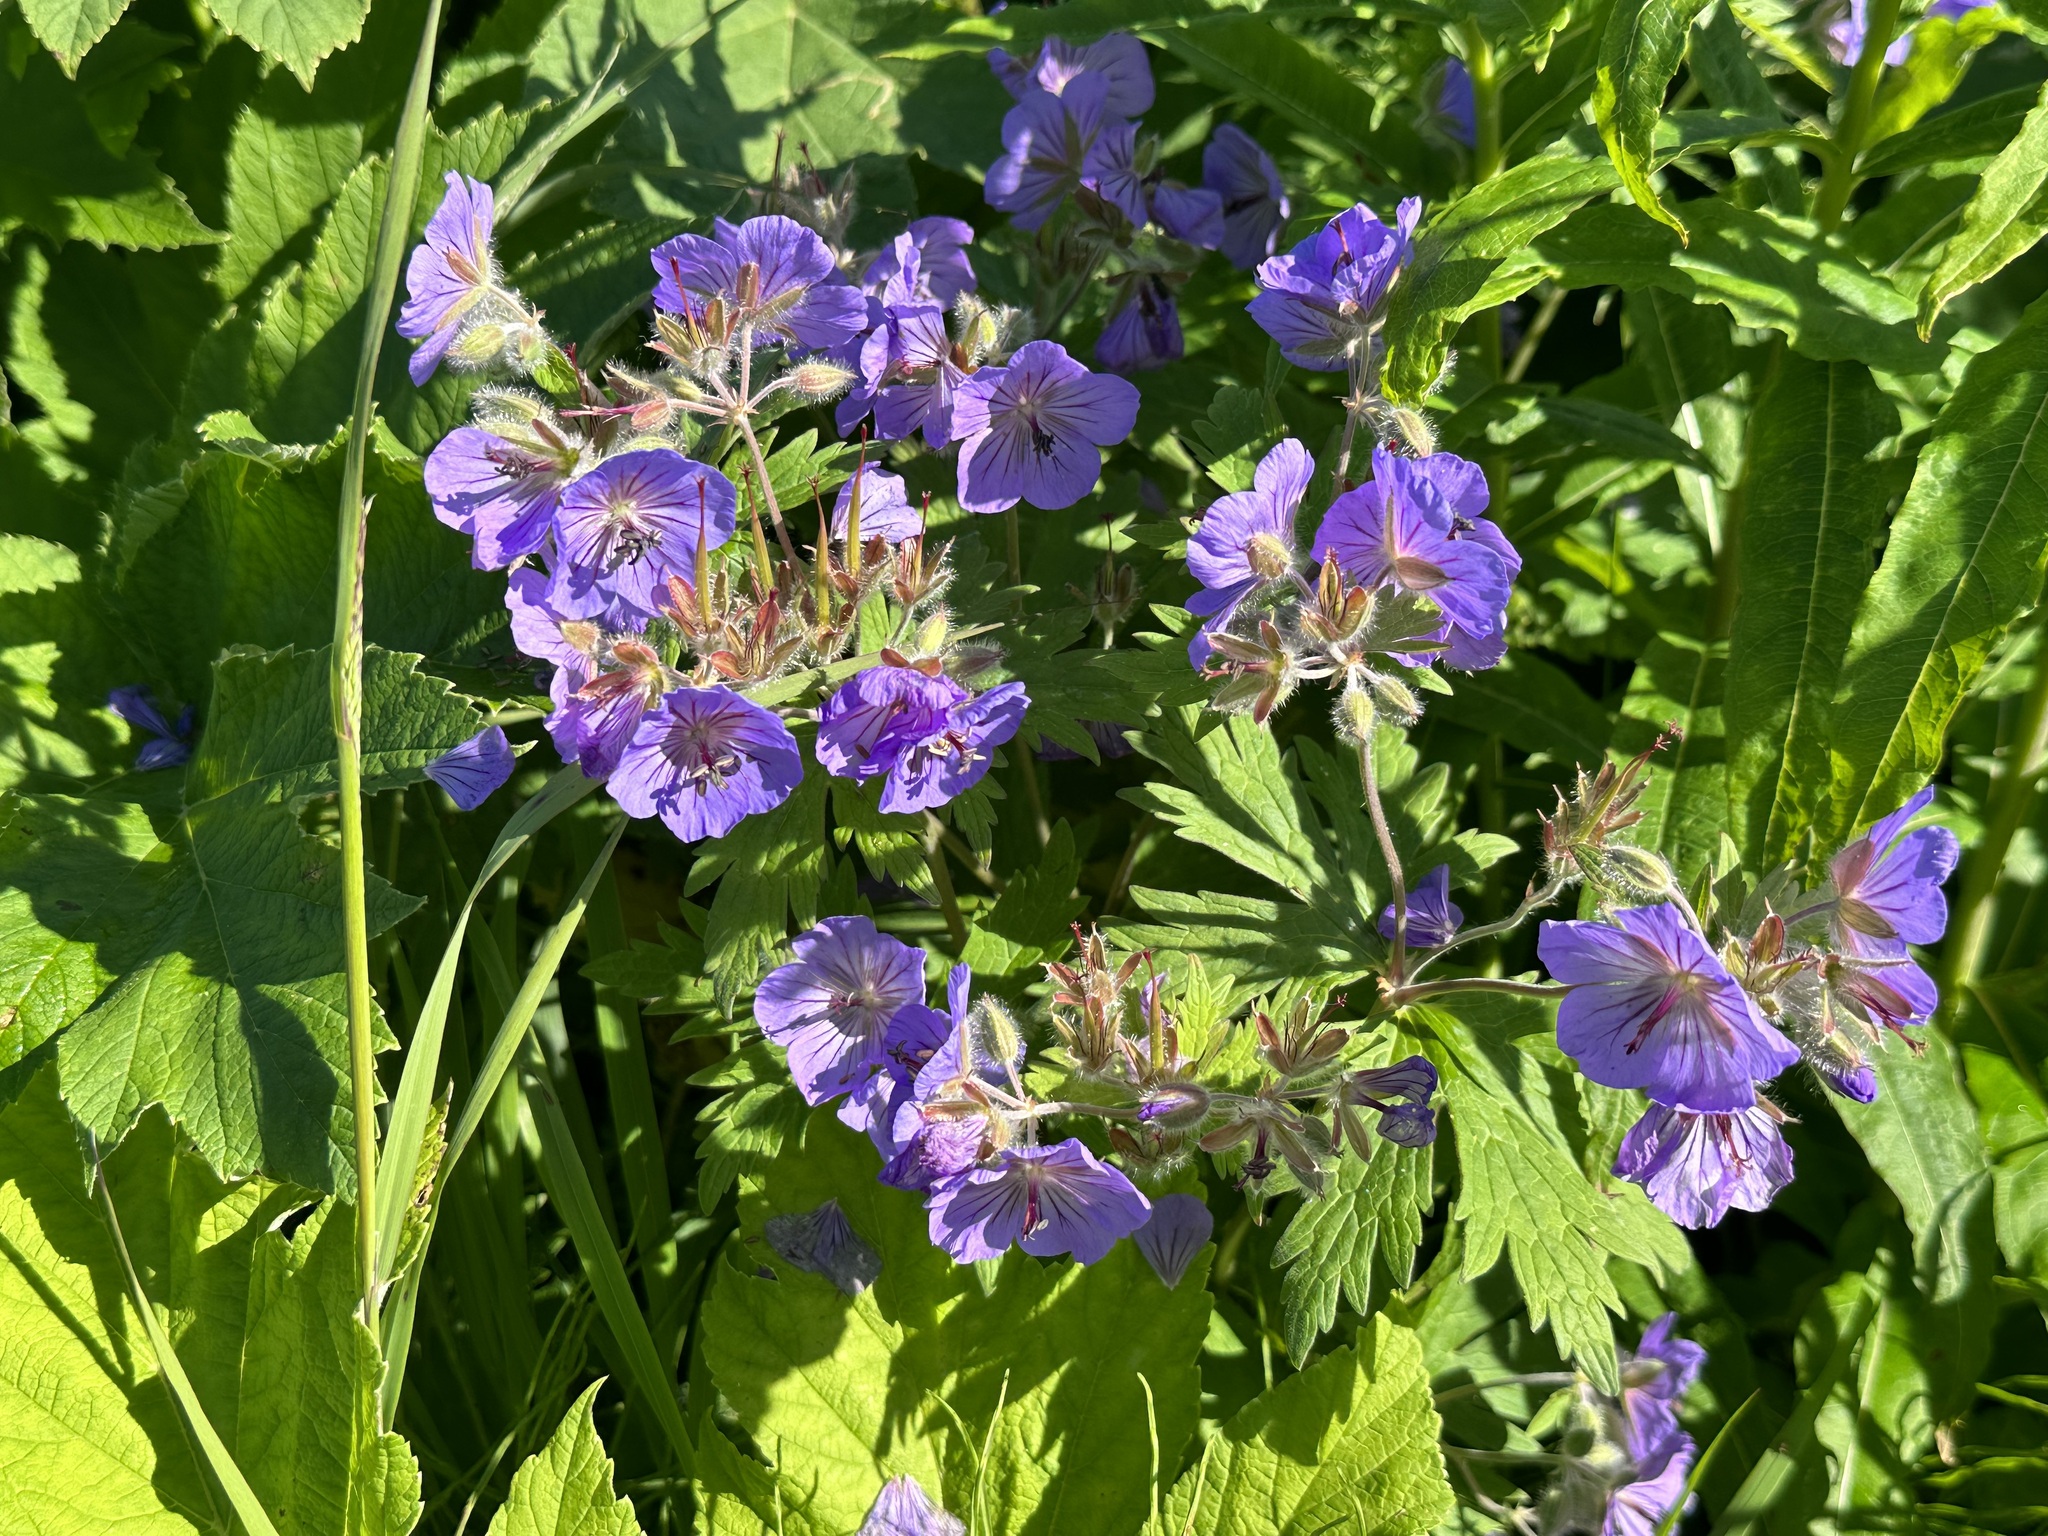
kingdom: Plantae
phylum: Tracheophyta
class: Magnoliopsida
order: Geraniales
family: Geraniaceae
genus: Geranium
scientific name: Geranium erianthum
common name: Northern crane's-bill
